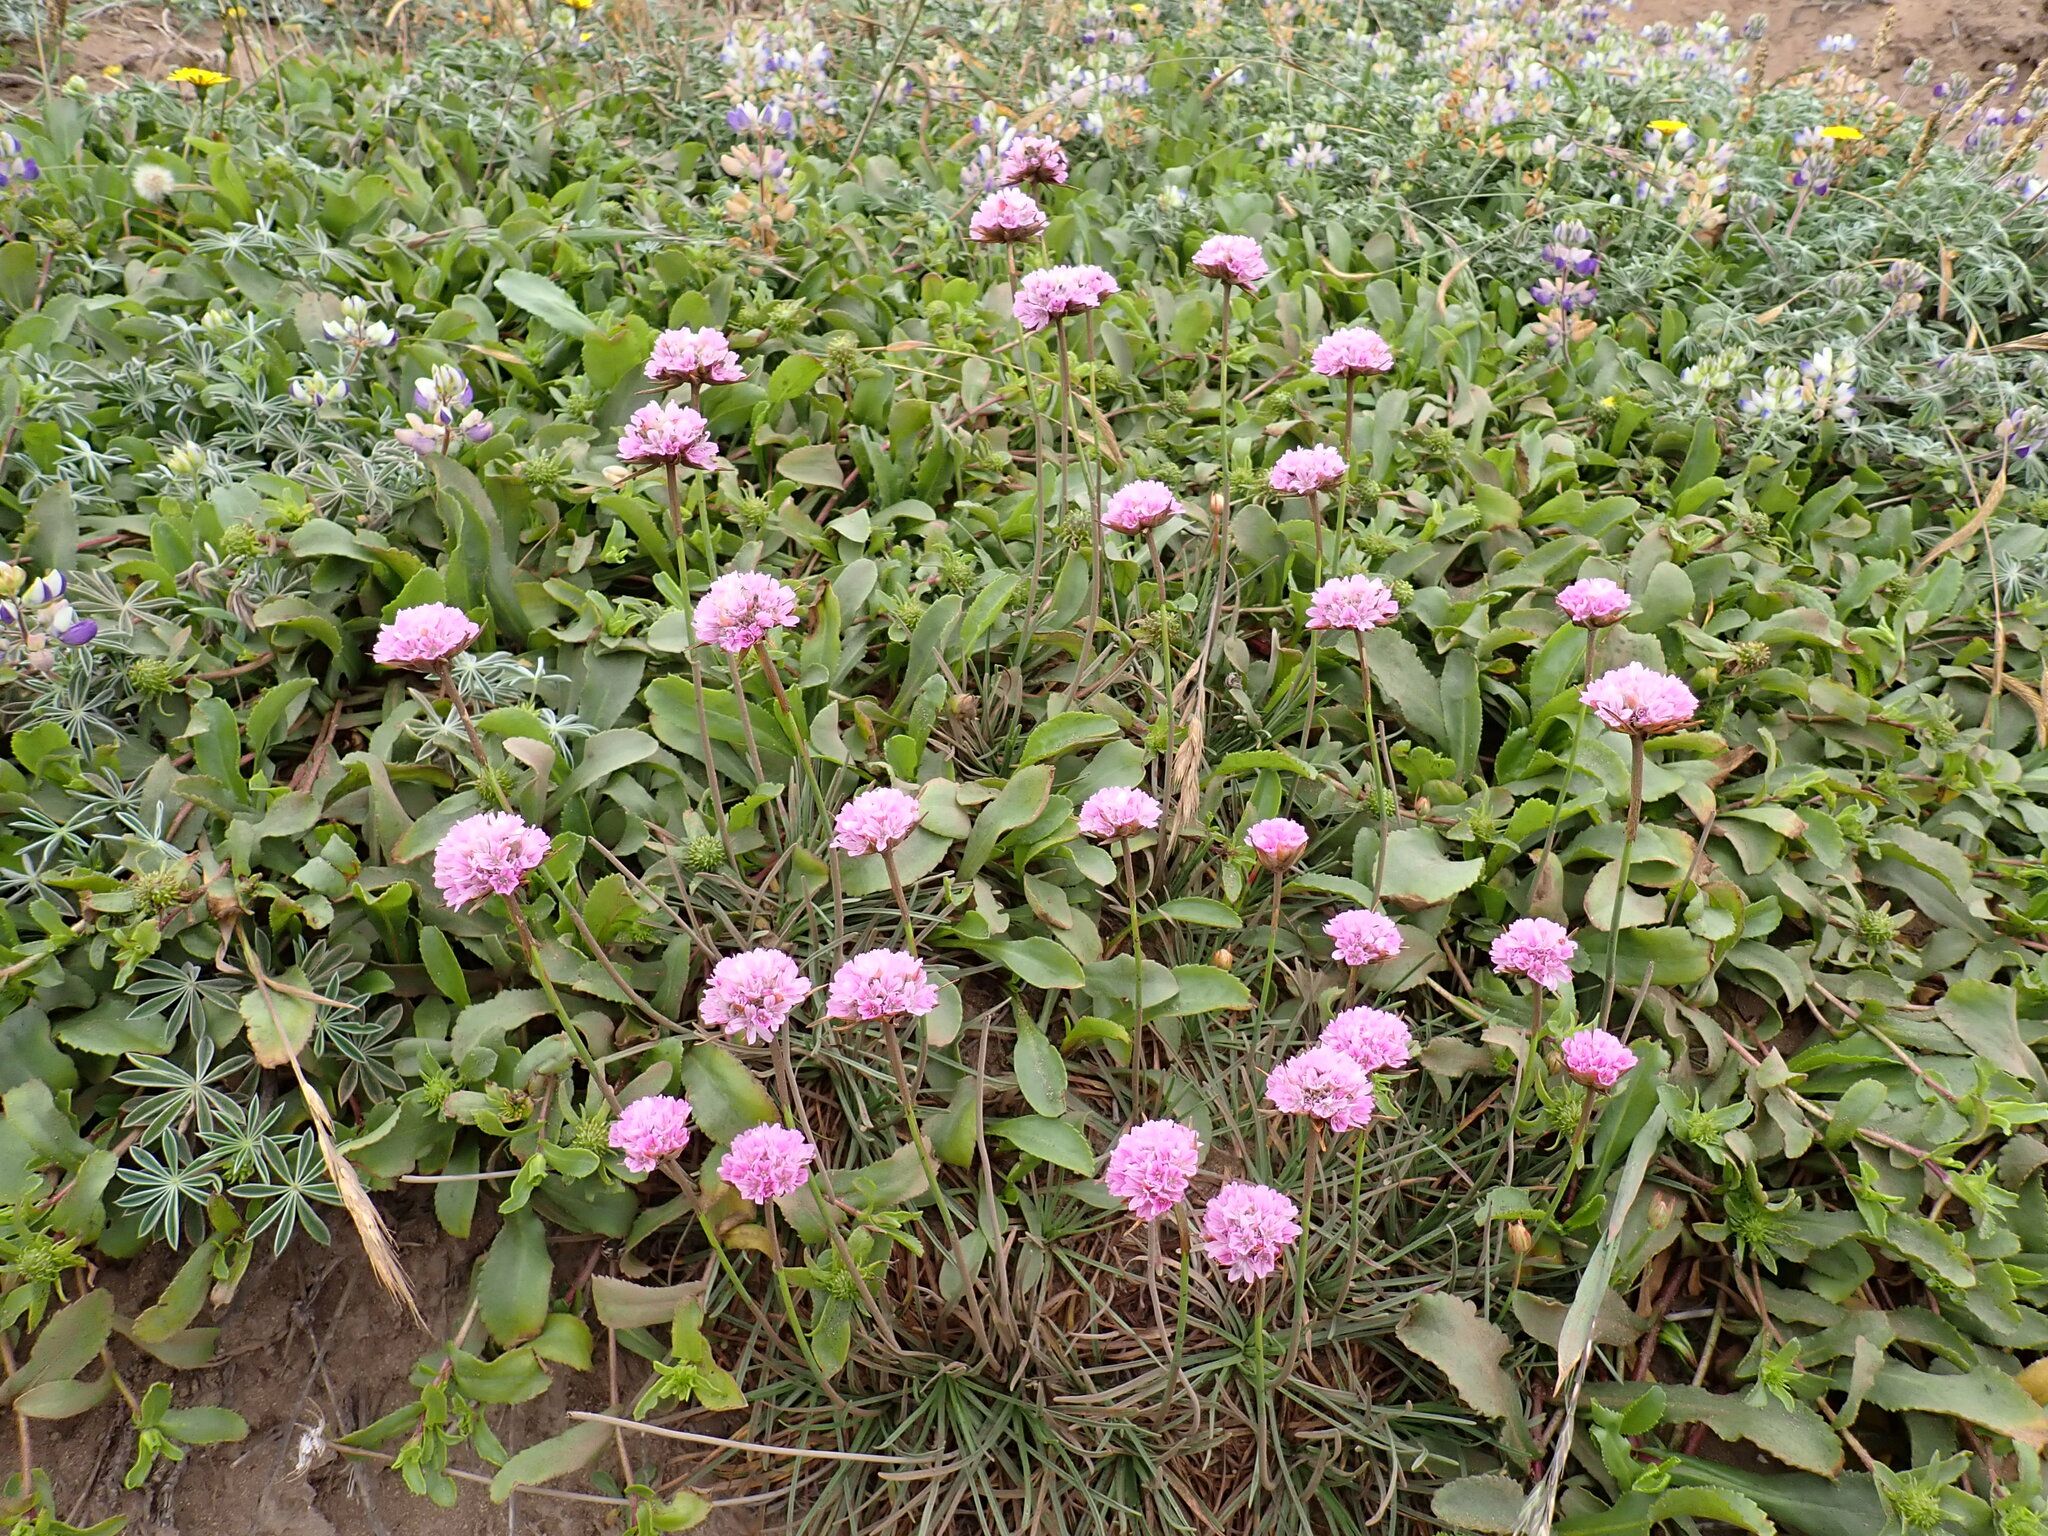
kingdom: Plantae
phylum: Tracheophyta
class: Magnoliopsida
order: Caryophyllales
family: Plumbaginaceae
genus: Armeria
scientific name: Armeria maritima
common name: Thrift
